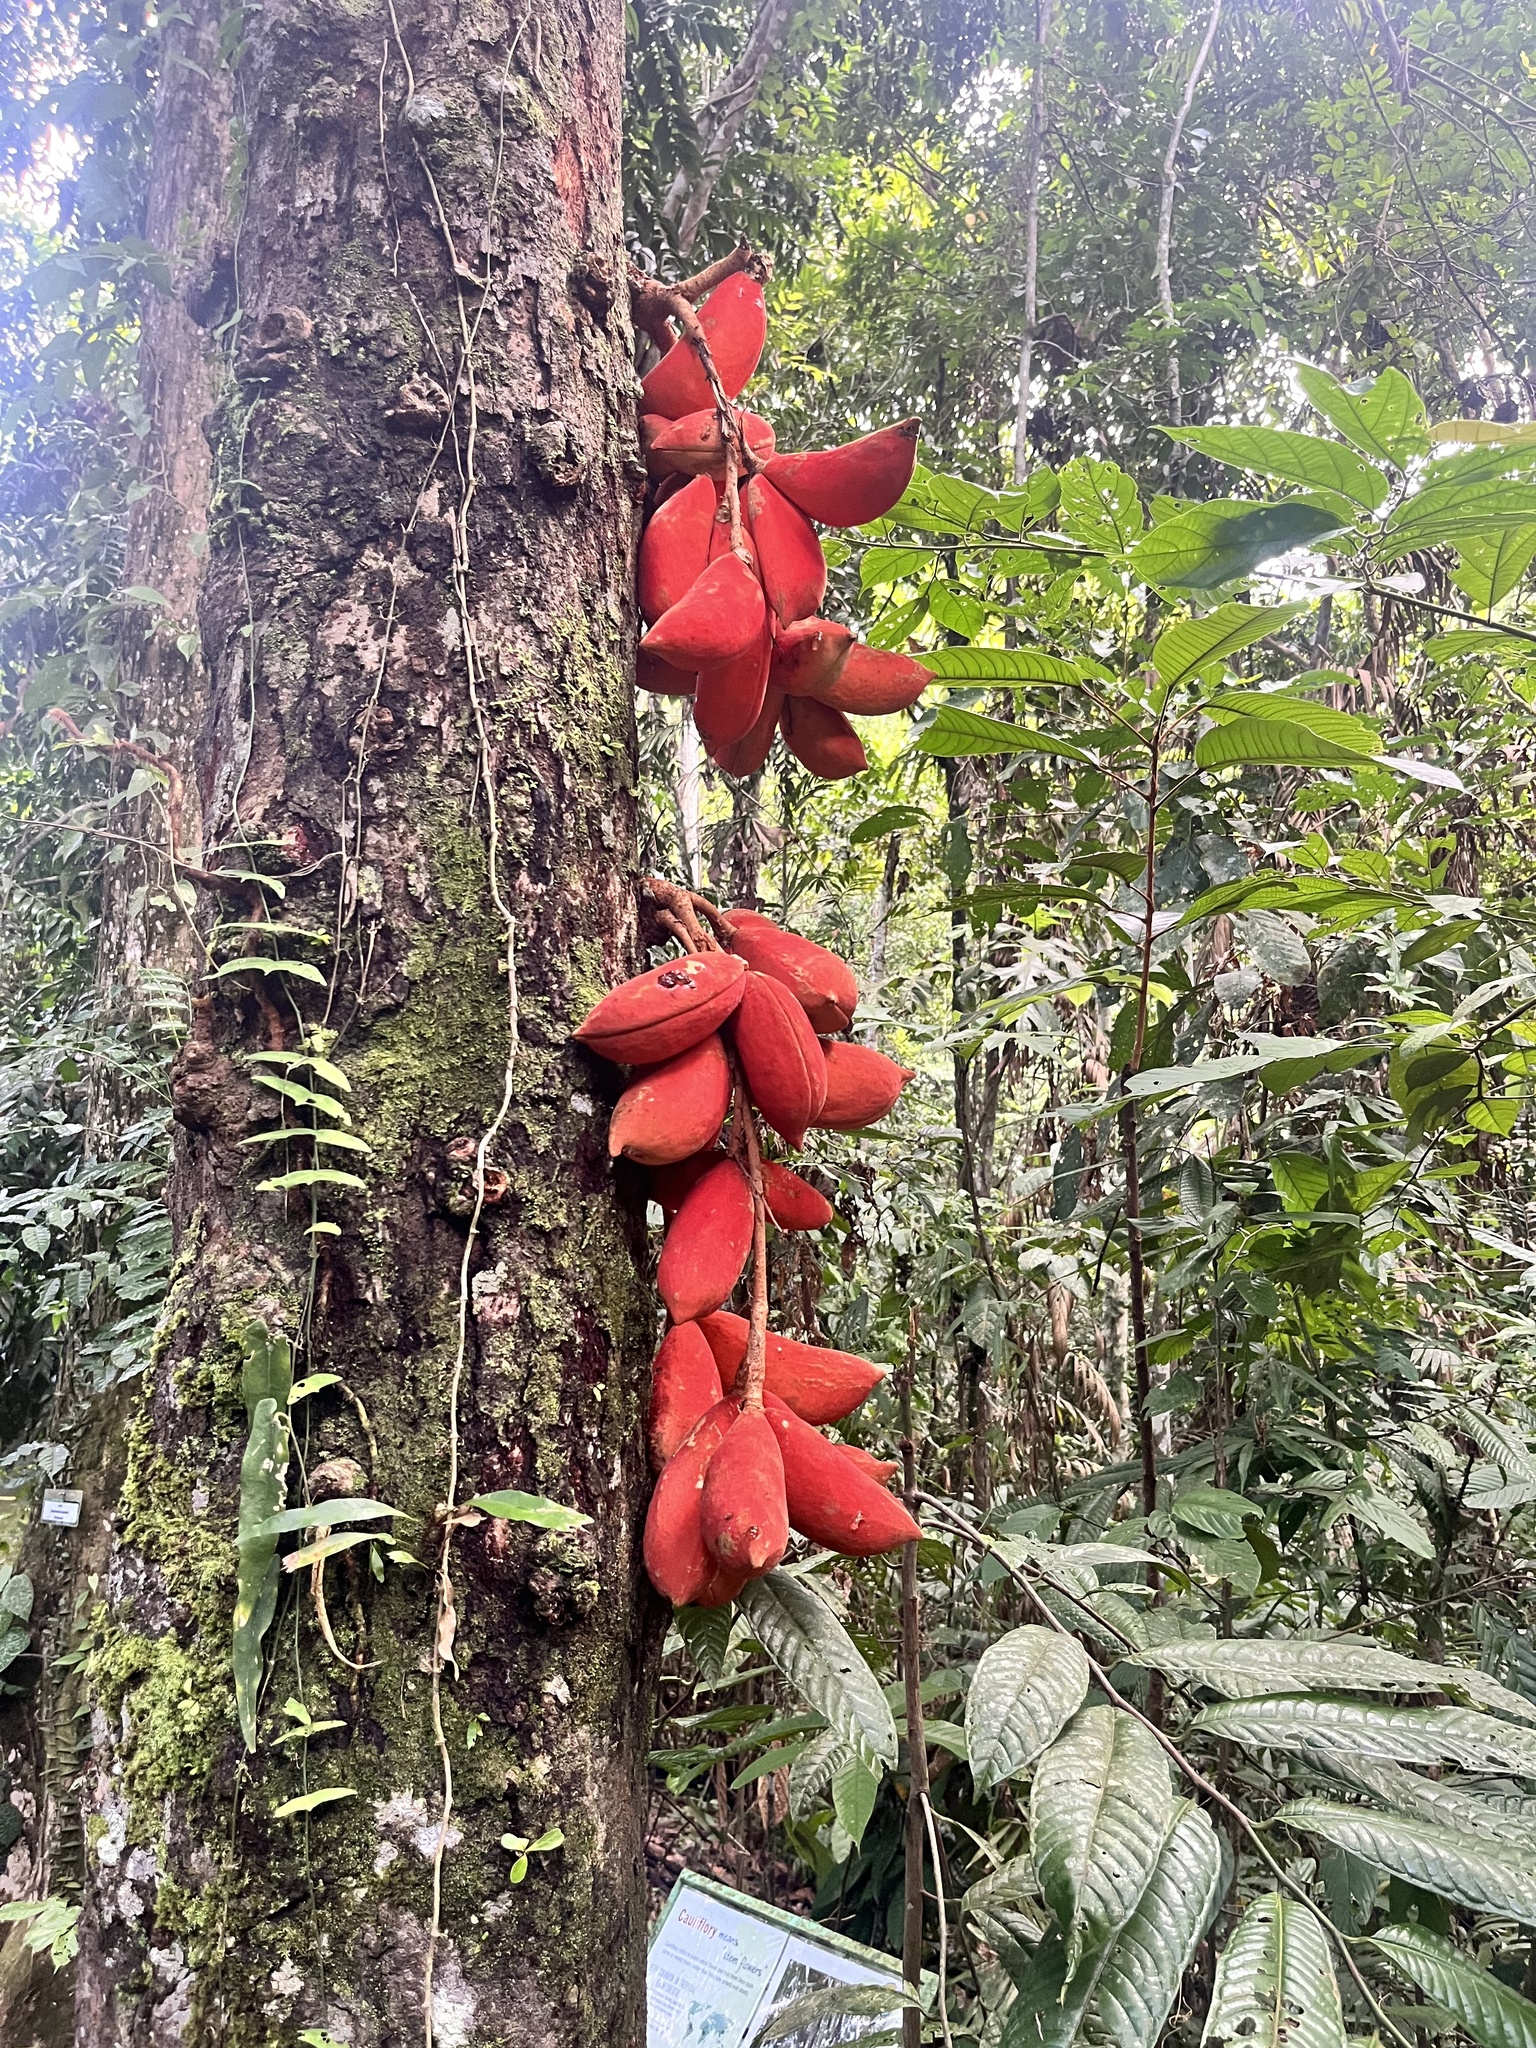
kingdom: Plantae
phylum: Tracheophyta
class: Magnoliopsida
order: Malvales
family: Malvaceae
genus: Sterculia
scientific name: Sterculia megistophylla
